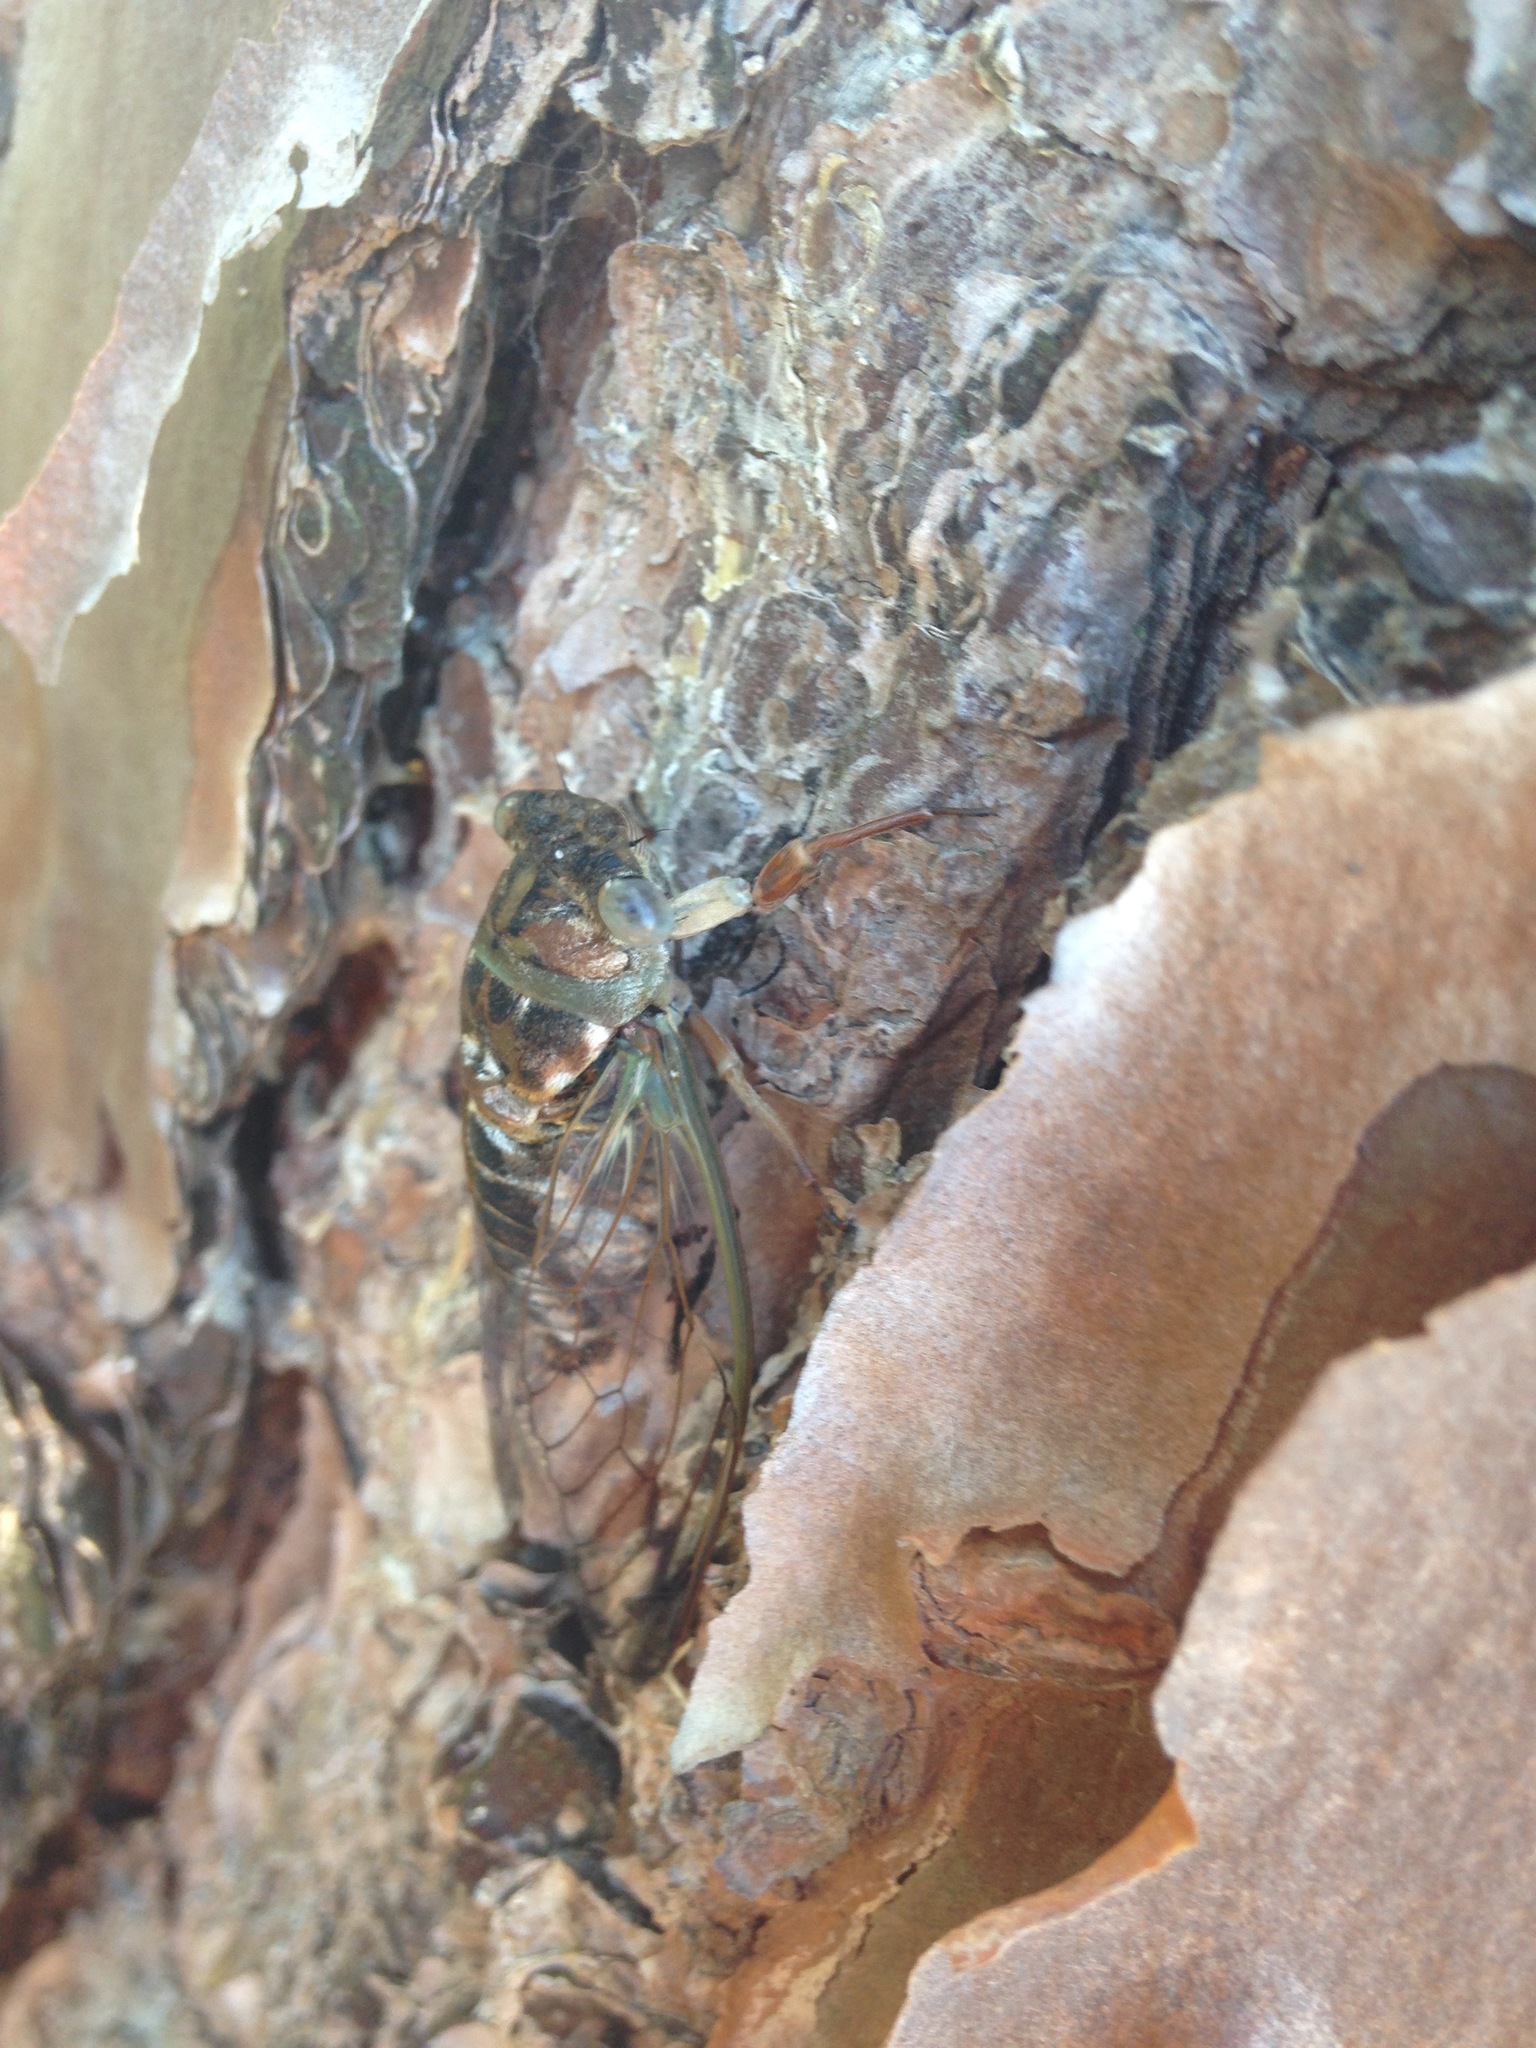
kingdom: Animalia
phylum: Arthropoda
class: Insecta
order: Hemiptera
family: Cicadidae
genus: Neotibicen
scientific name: Neotibicen davisi
